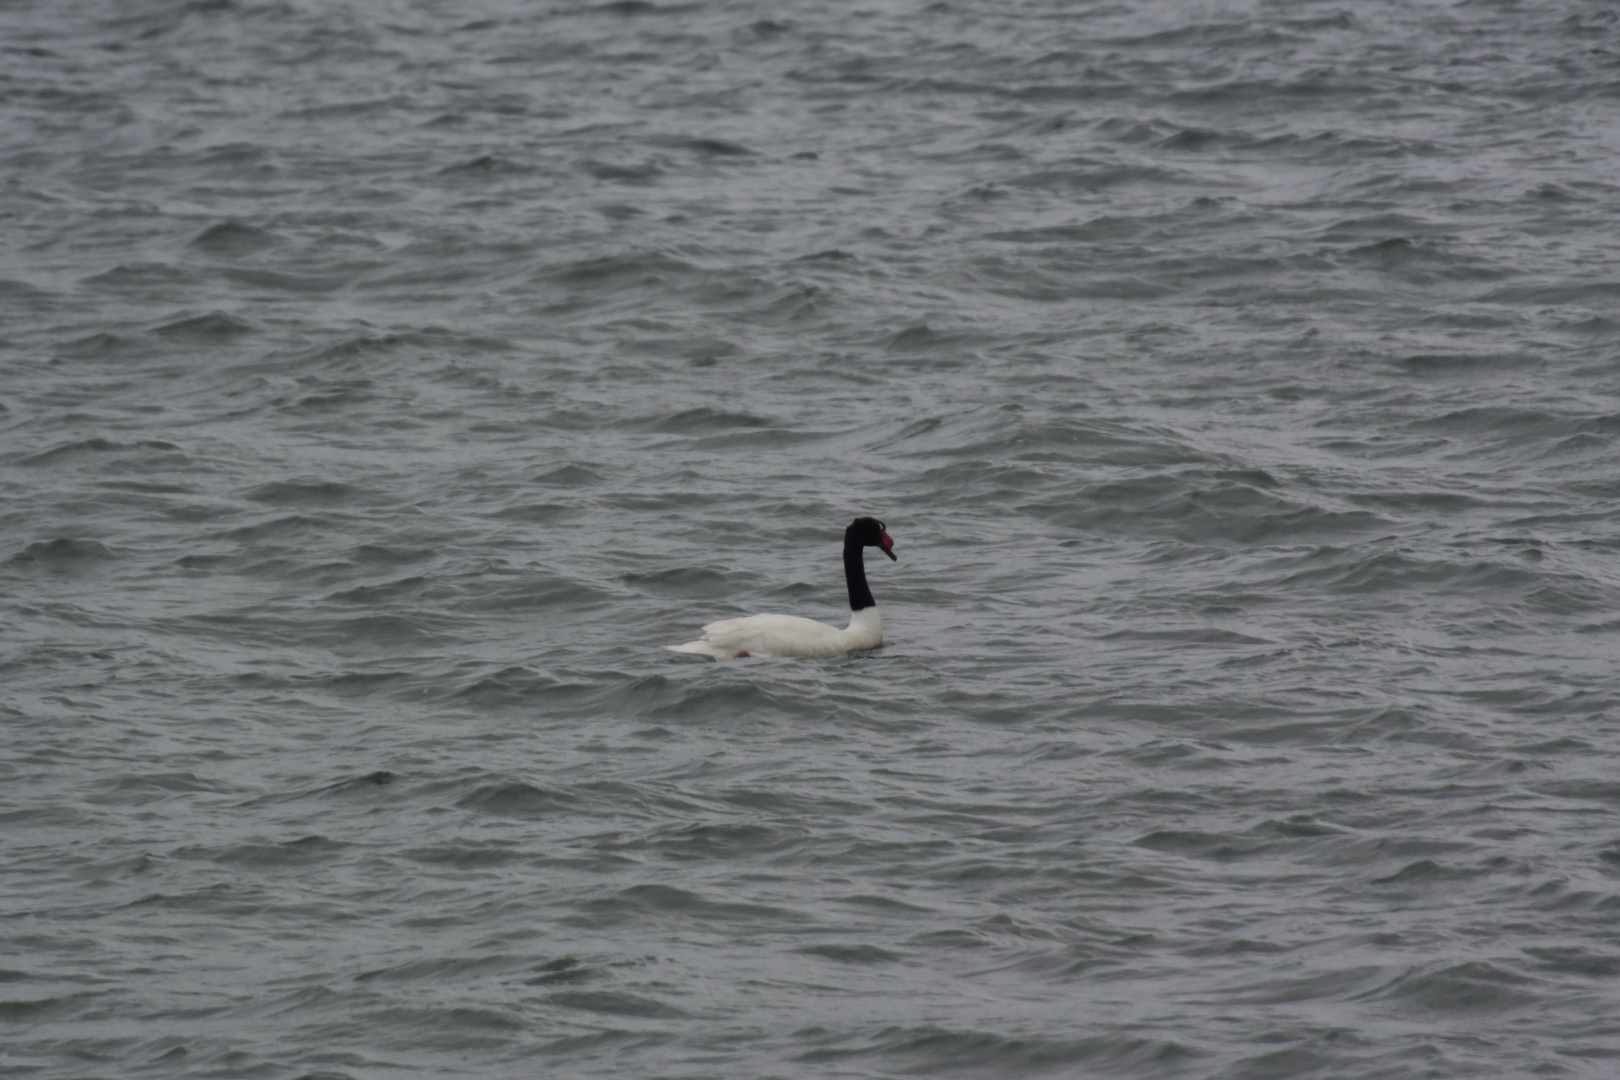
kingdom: Animalia
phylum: Chordata
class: Aves
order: Anseriformes
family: Anatidae
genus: Cygnus
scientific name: Cygnus melancoryphus
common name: Black-necked swan
